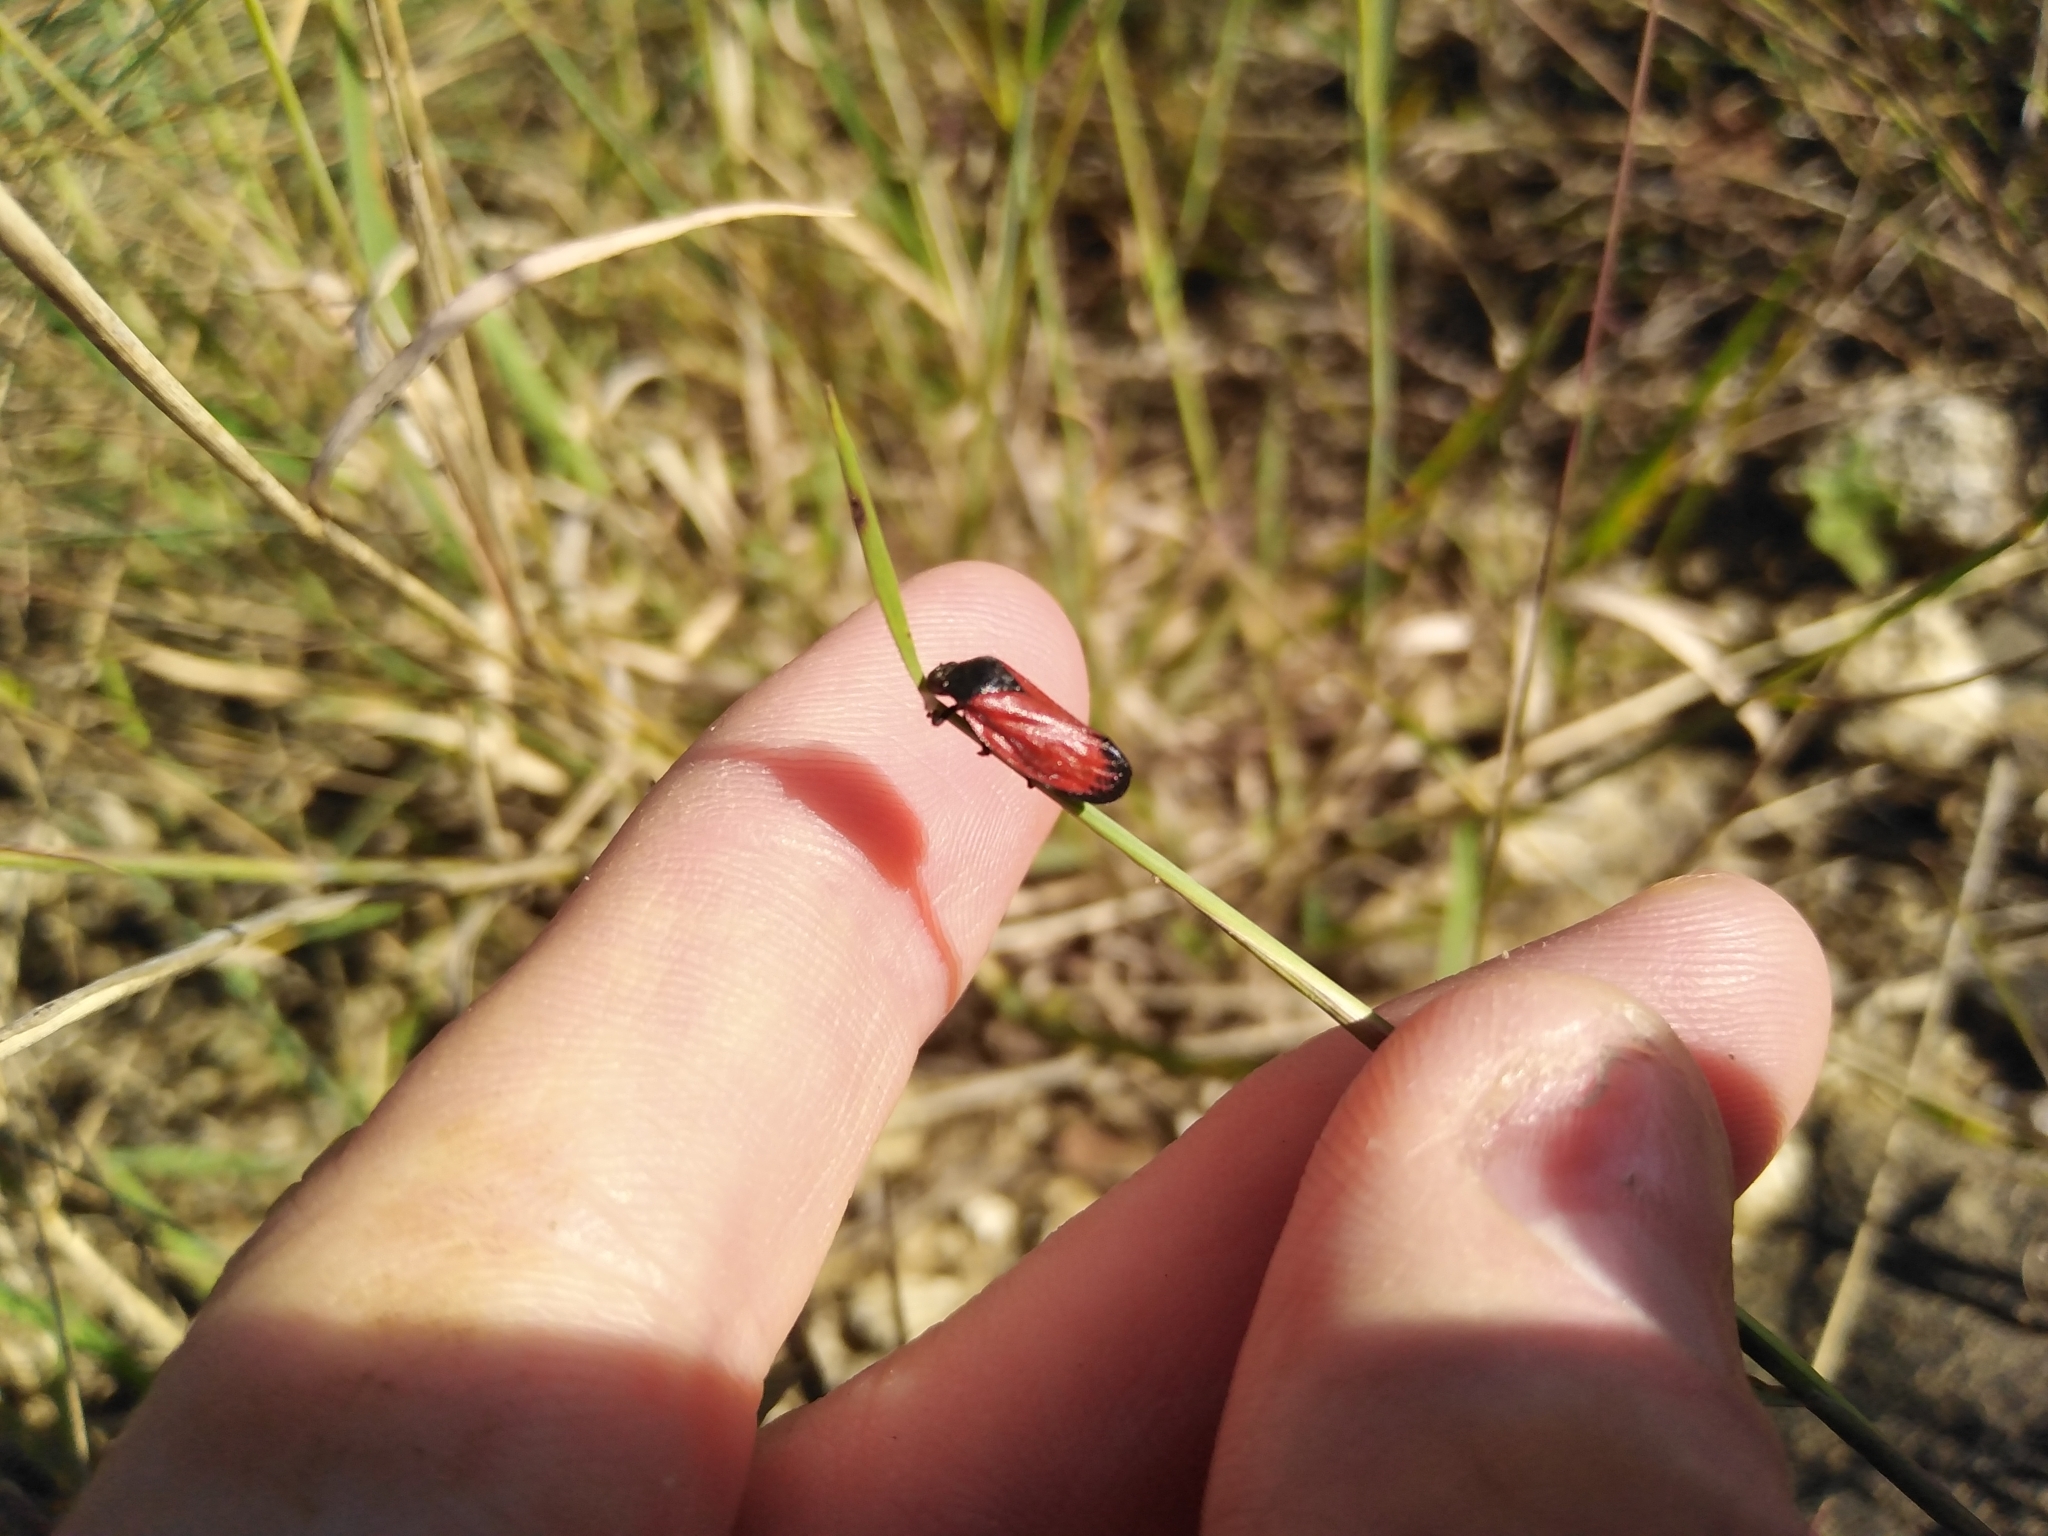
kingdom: Animalia
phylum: Arthropoda
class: Insecta
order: Hemiptera
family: Cercopidae
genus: Locris
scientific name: Locris rubida
